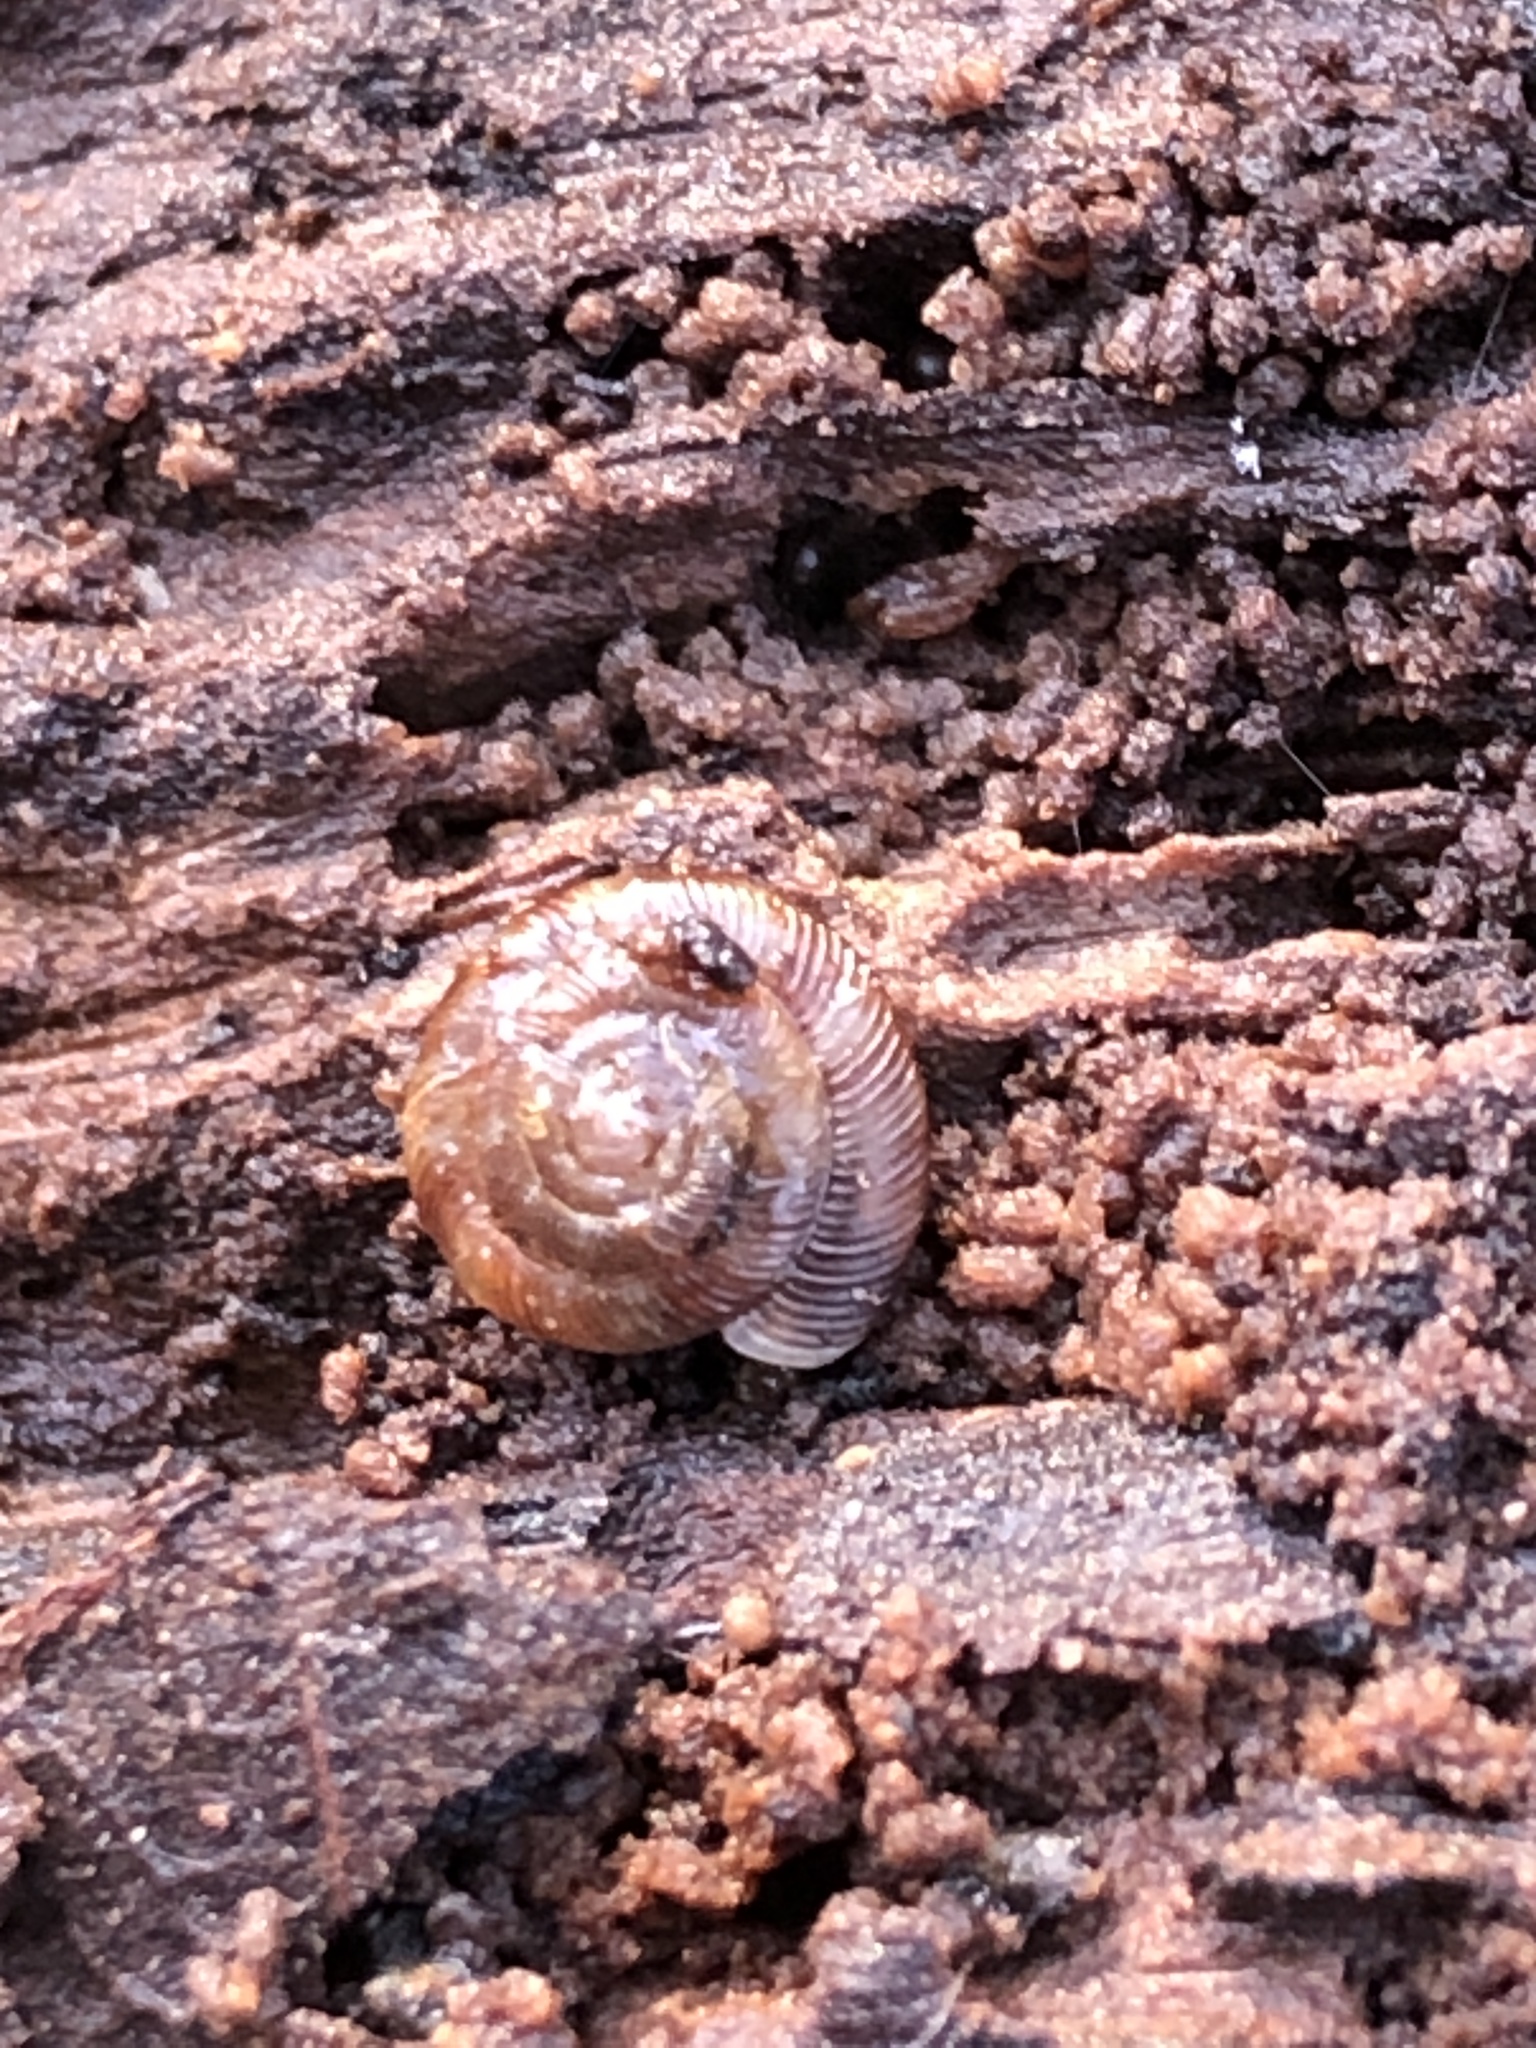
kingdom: Animalia
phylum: Mollusca
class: Gastropoda
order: Stylommatophora
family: Discidae
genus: Discus
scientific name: Discus rotundatus
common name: Rounded snail
